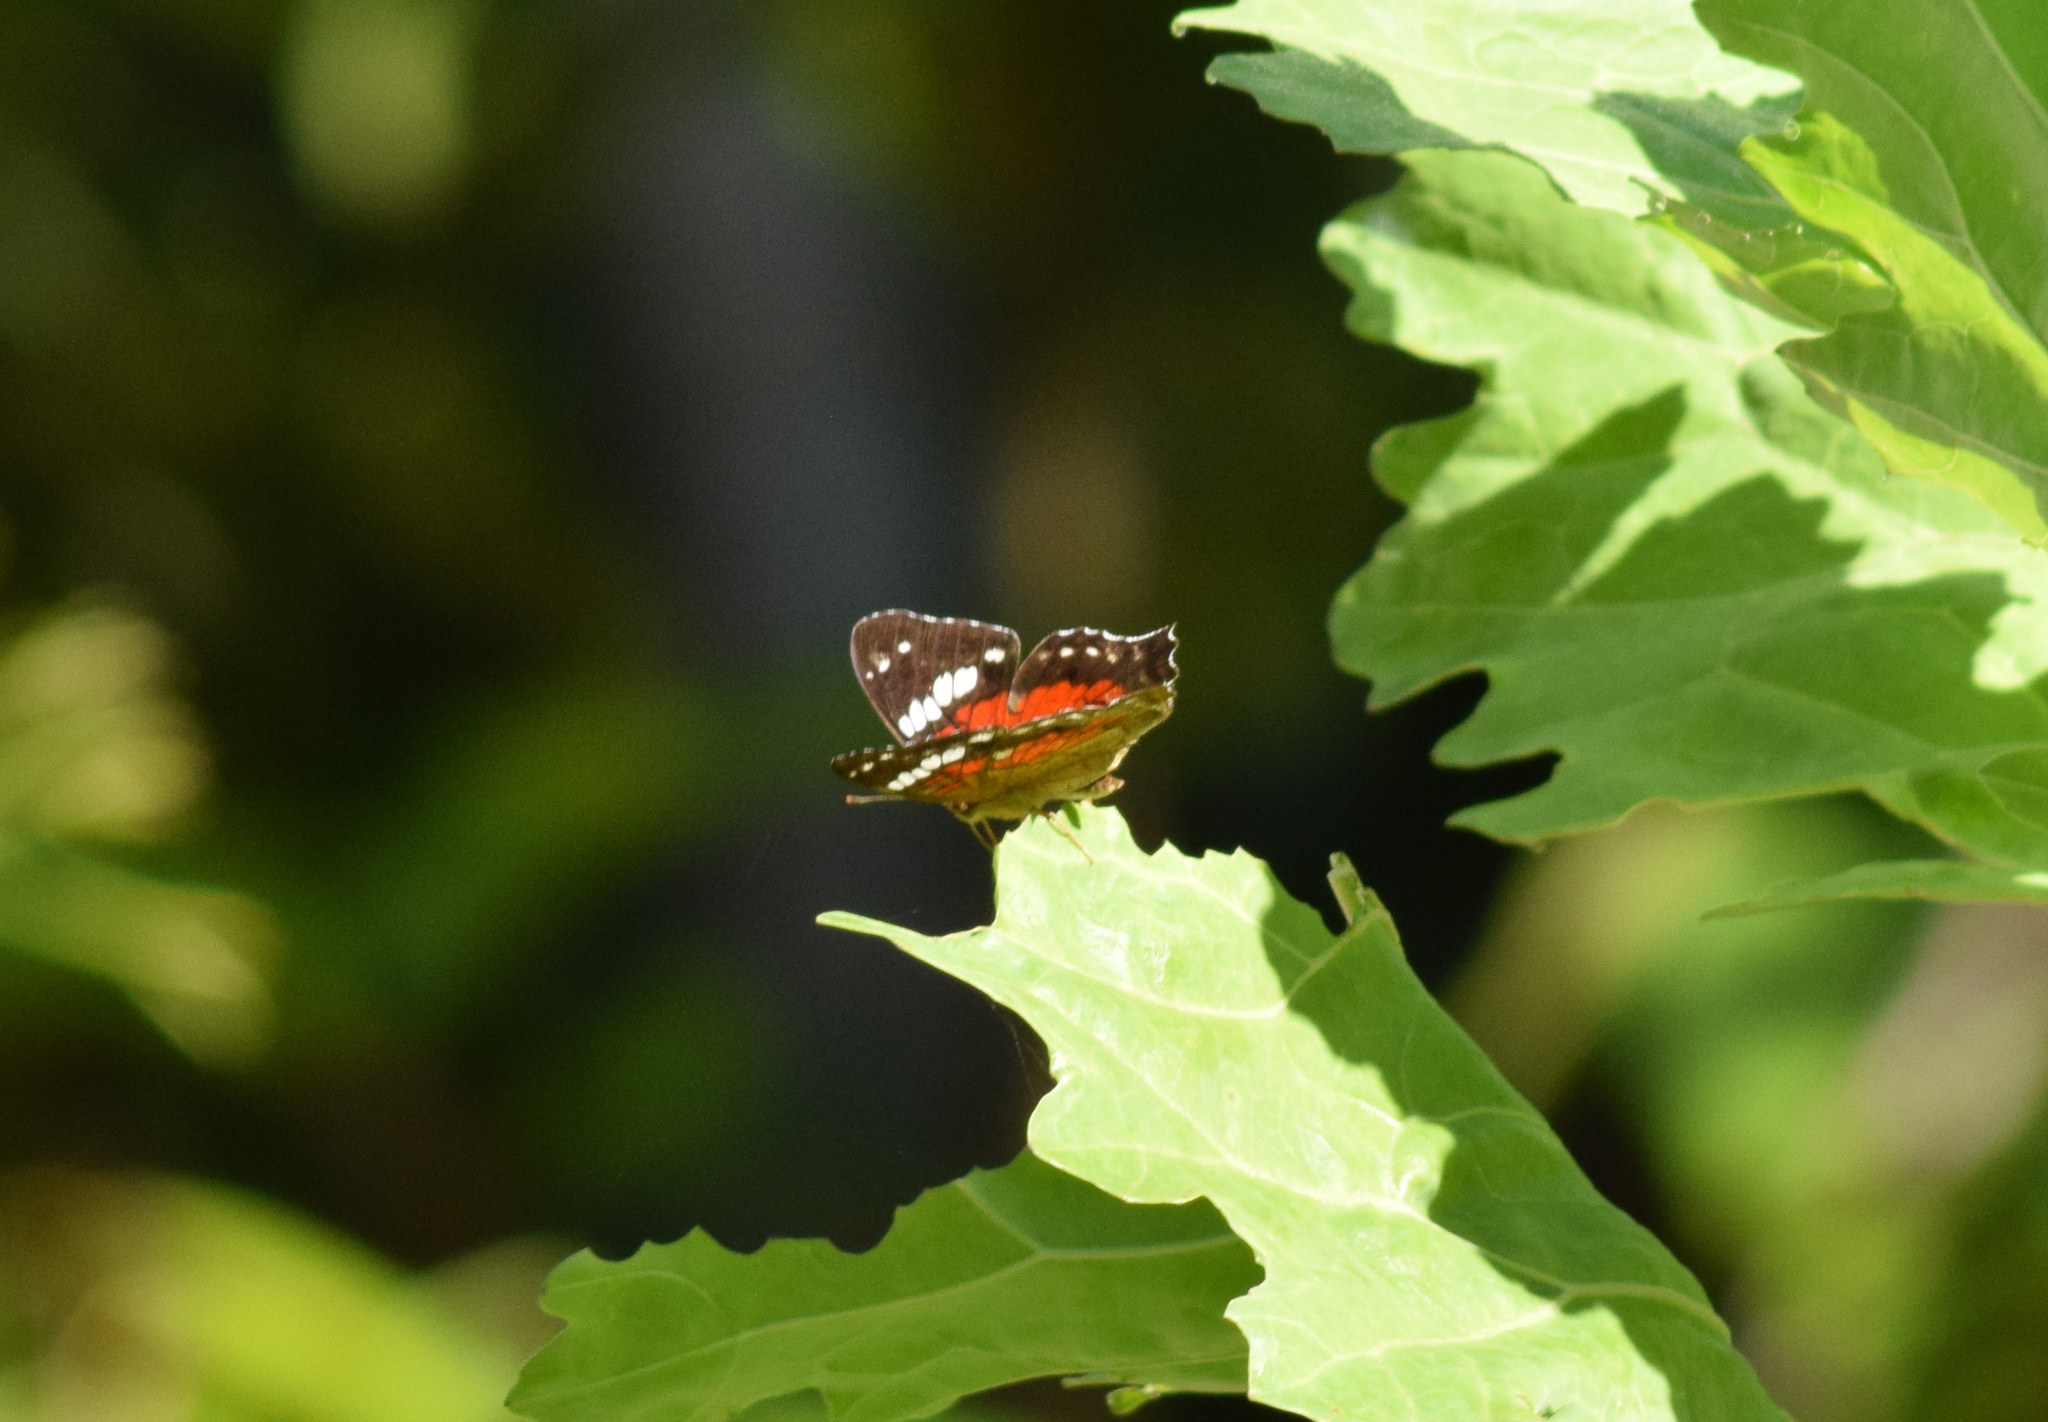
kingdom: Animalia
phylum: Arthropoda
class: Insecta
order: Lepidoptera
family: Nymphalidae
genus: Anartia
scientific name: Anartia amathea
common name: Red peacock
